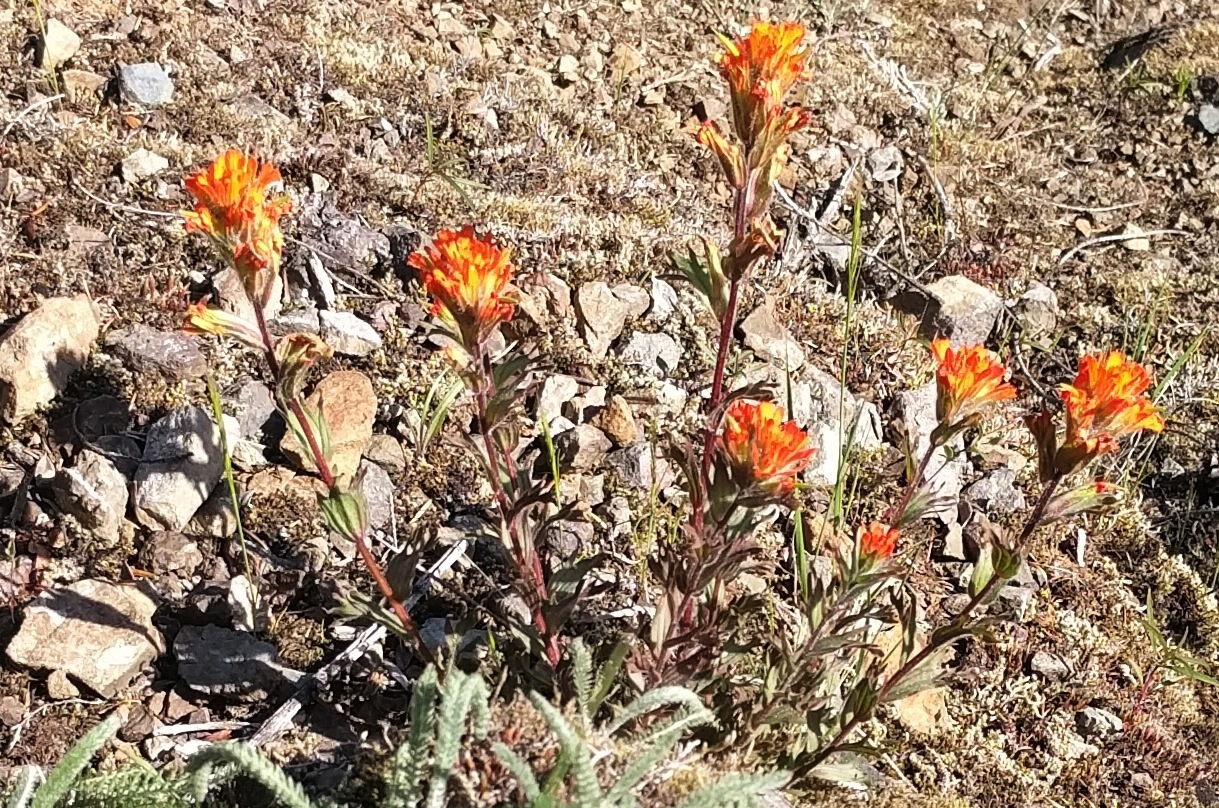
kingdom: Plantae
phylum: Tracheophyta
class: Magnoliopsida
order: Lamiales
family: Orobanchaceae
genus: Castilleja
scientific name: Castilleja hispida
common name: Bristly paintbrush
